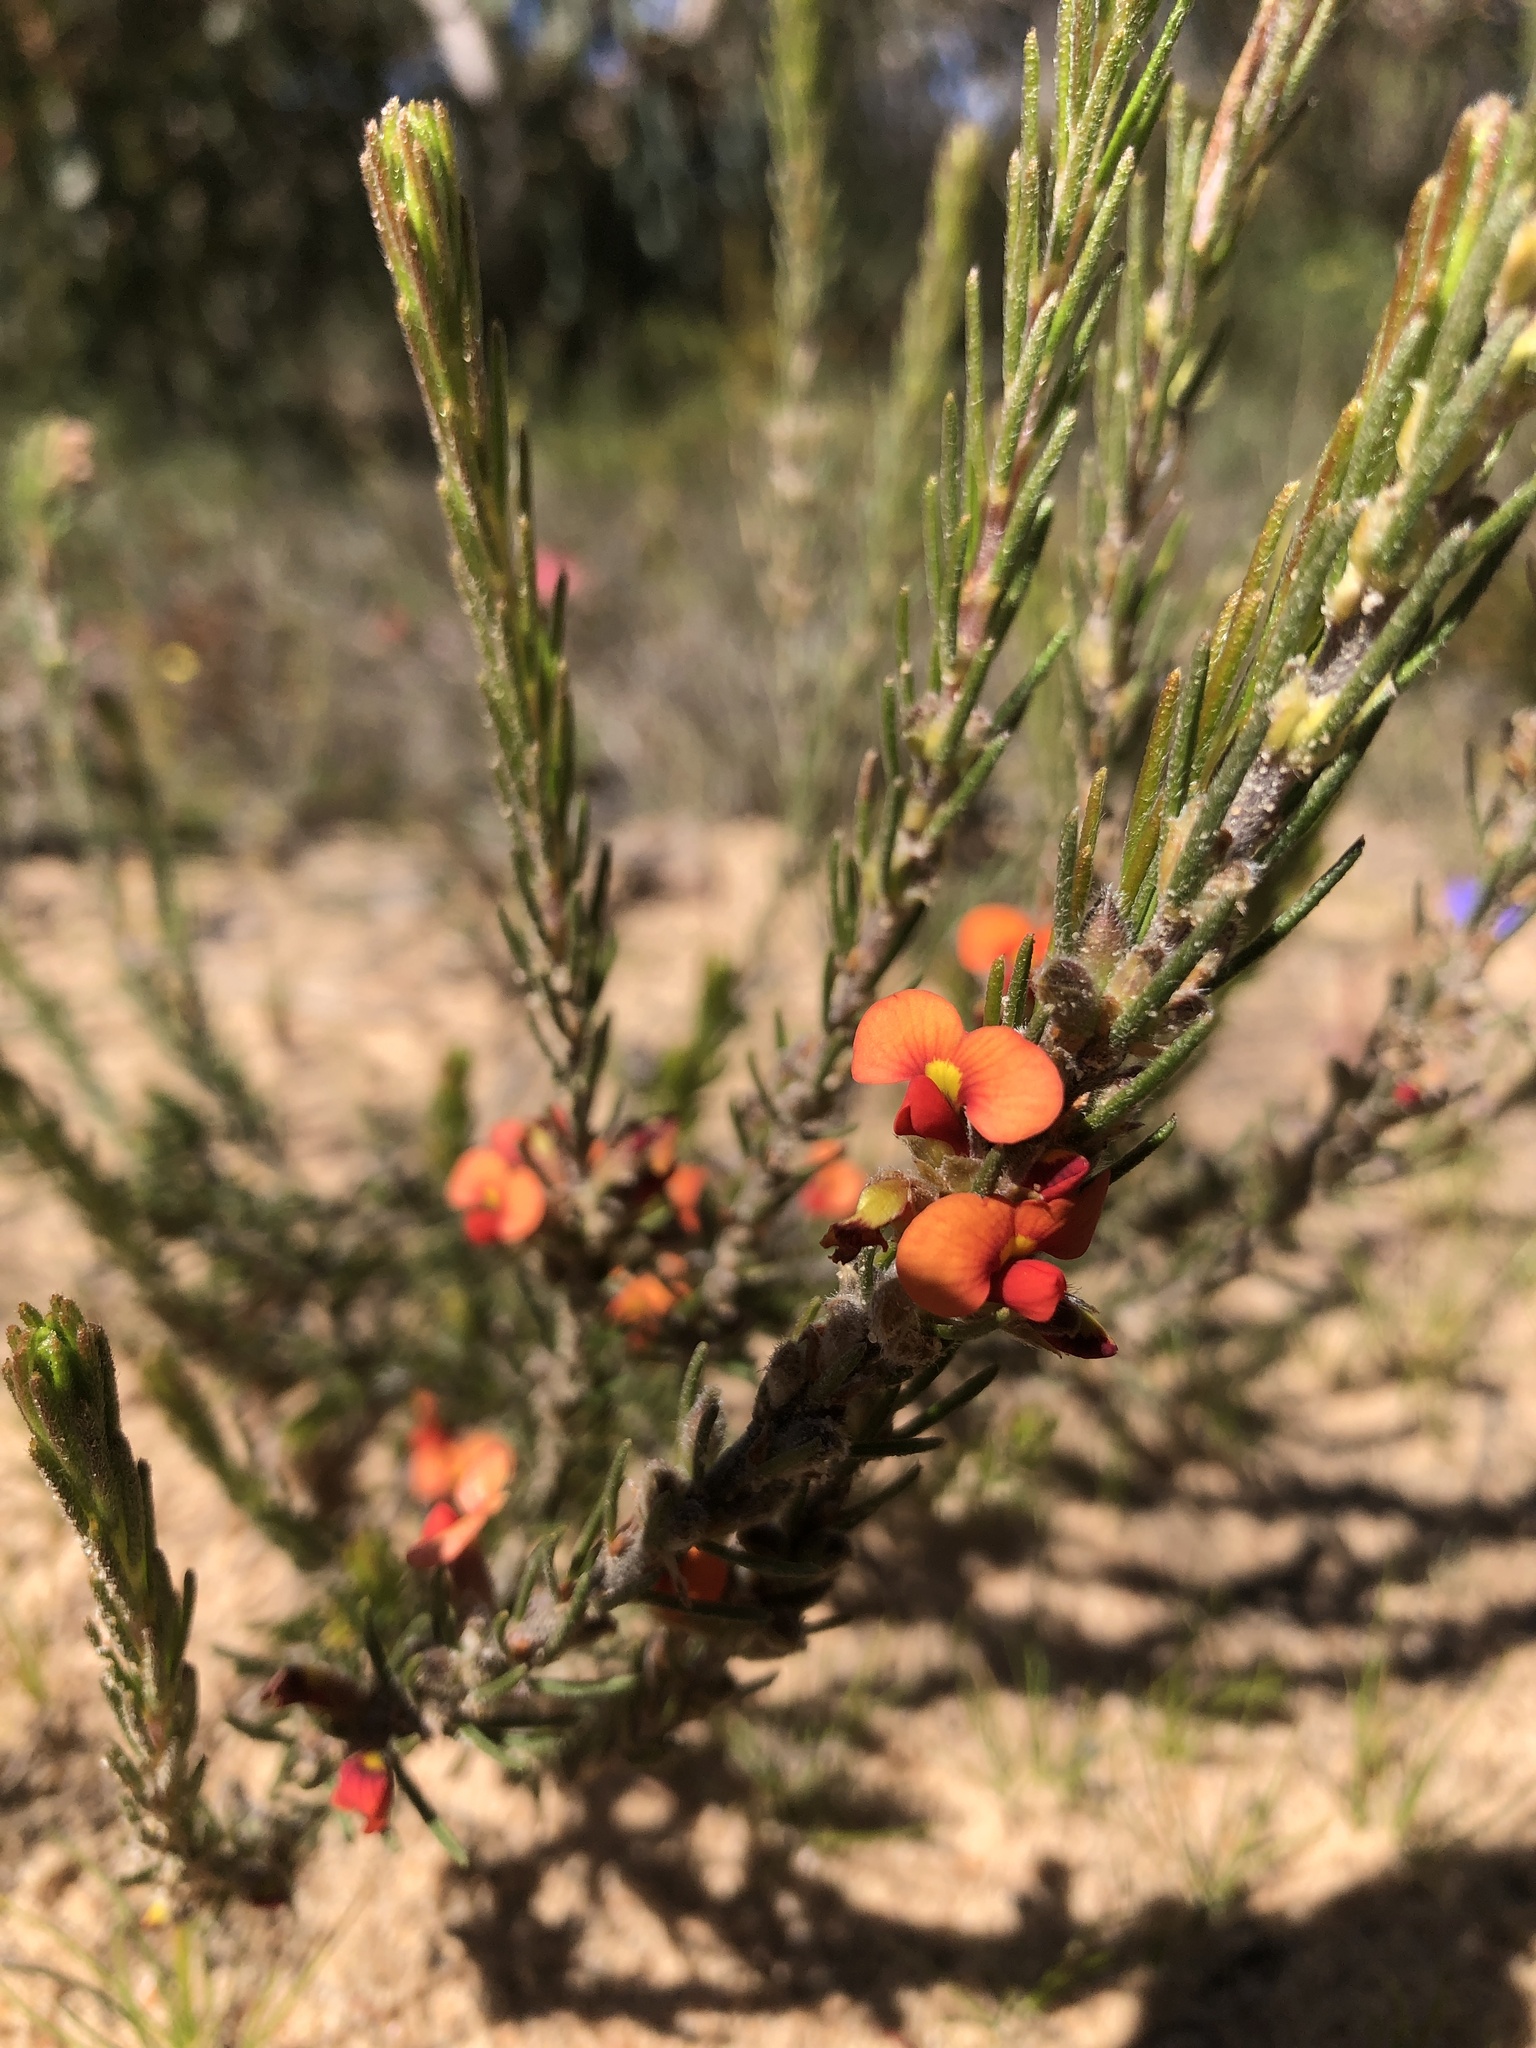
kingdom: Plantae
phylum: Tracheophyta
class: Magnoliopsida
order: Fabales
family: Fabaceae
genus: Dillwynia
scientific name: Dillwynia sericea
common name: Showy parrot-pea
